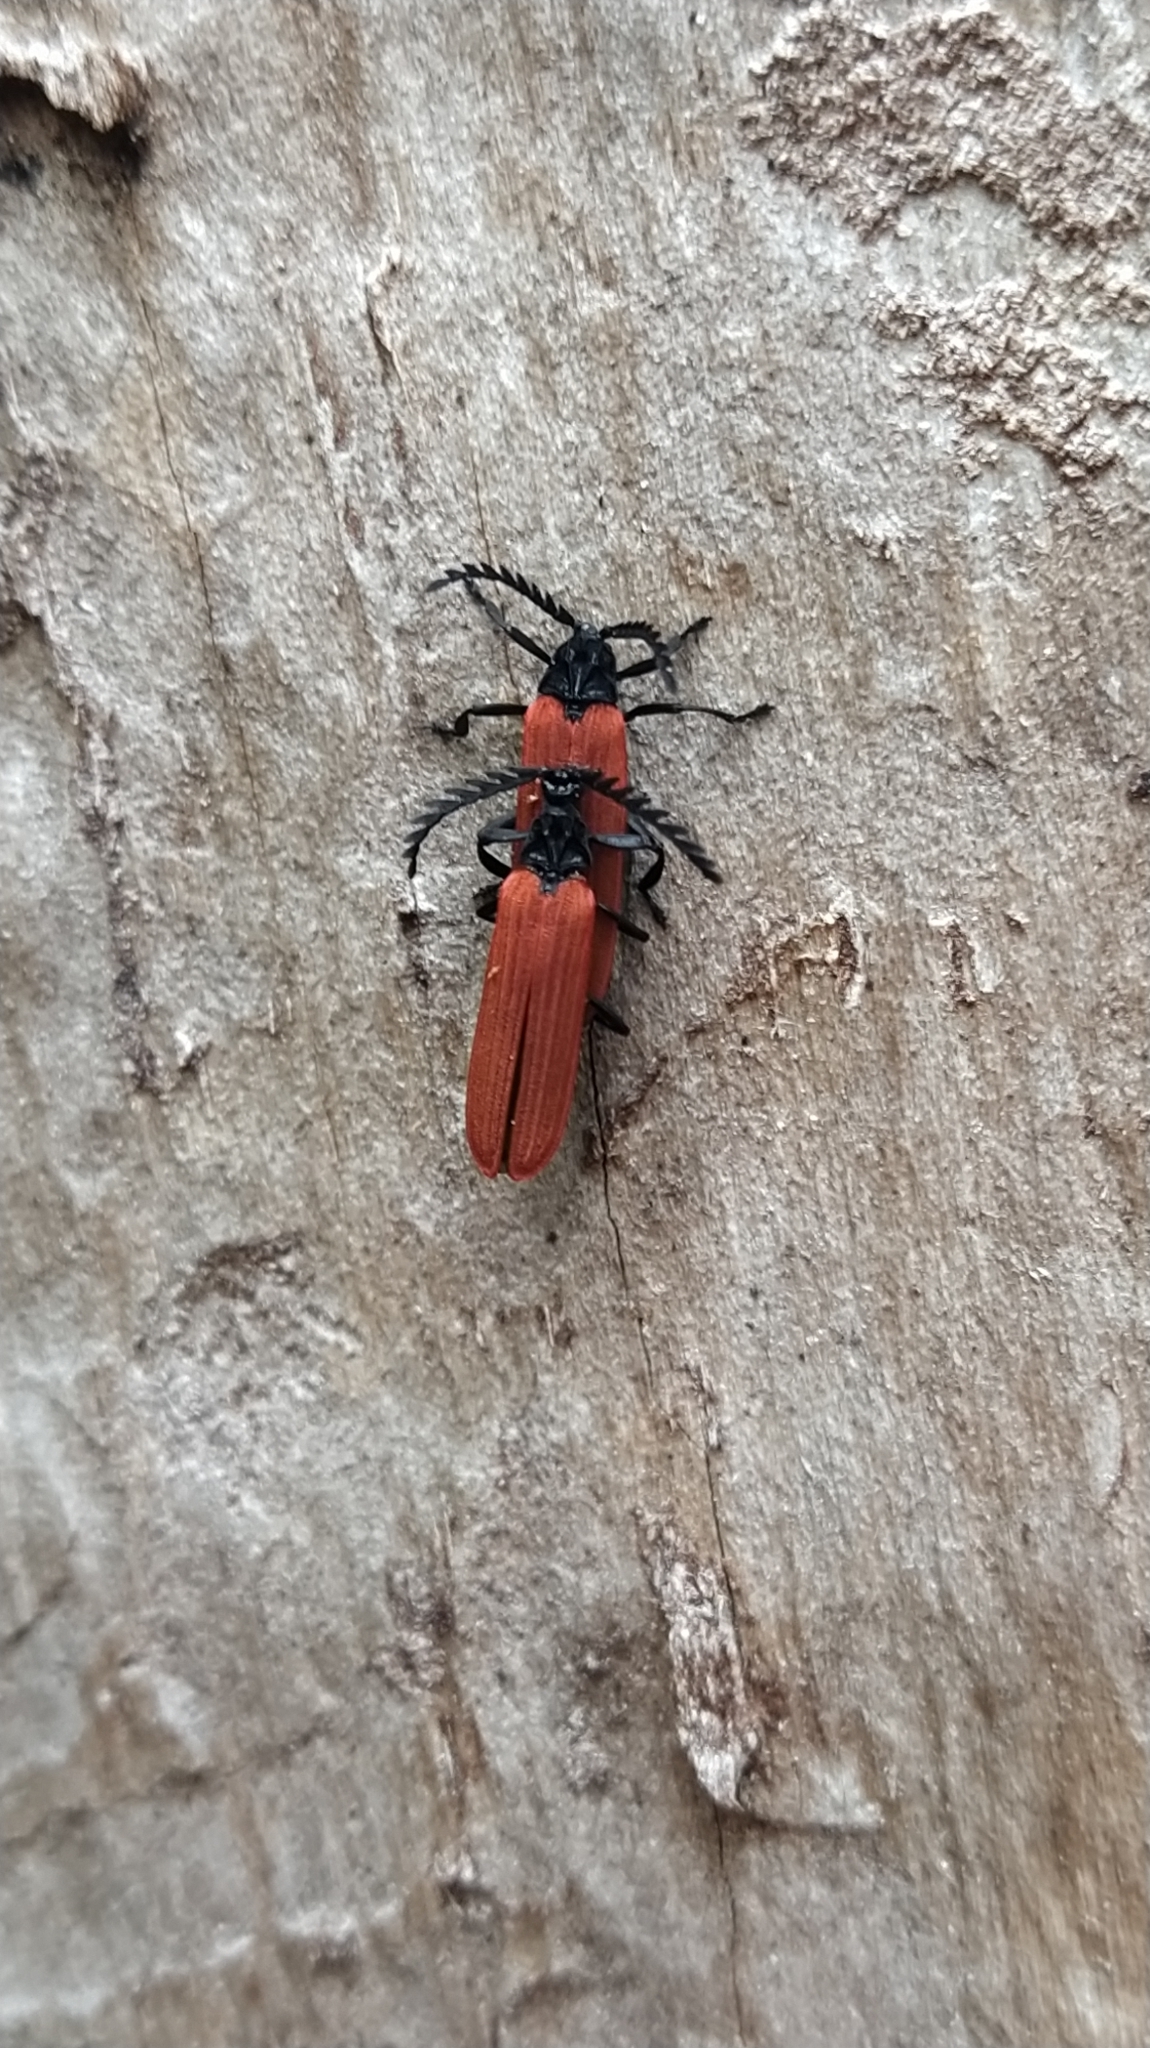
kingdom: Animalia
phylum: Arthropoda
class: Insecta
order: Coleoptera
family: Lycidae
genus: Porrostoma
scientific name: Porrostoma rufipenne
